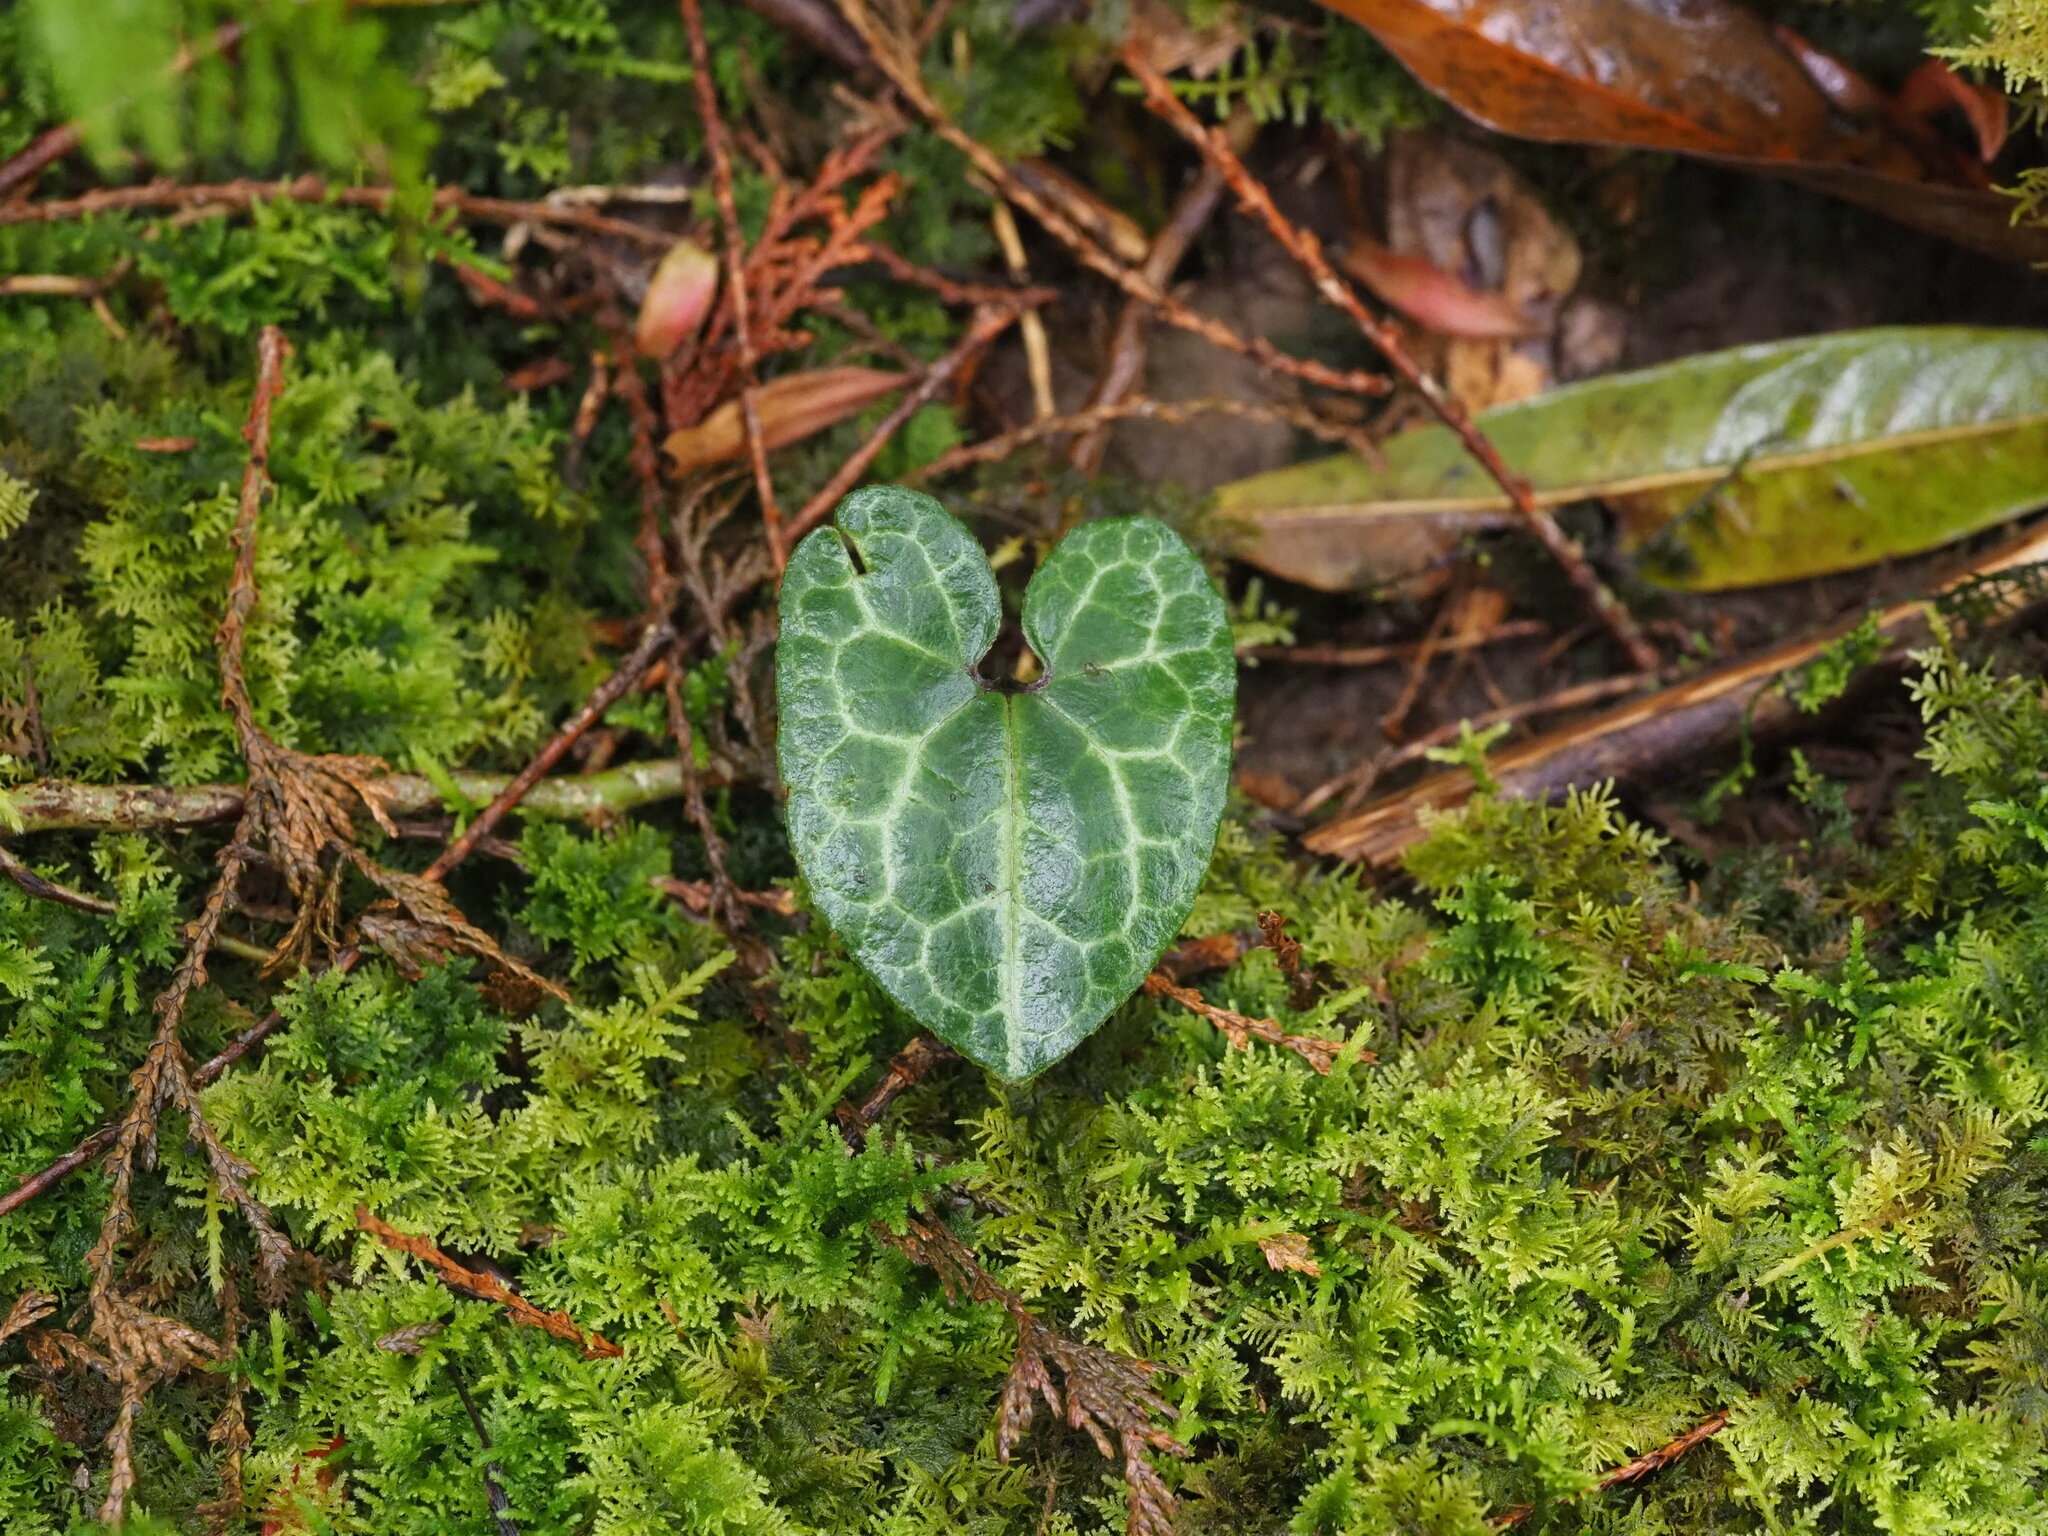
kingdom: Plantae
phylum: Tracheophyta
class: Magnoliopsida
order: Piperales
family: Aristolochiaceae
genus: Asarum
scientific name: Asarum macranthum
